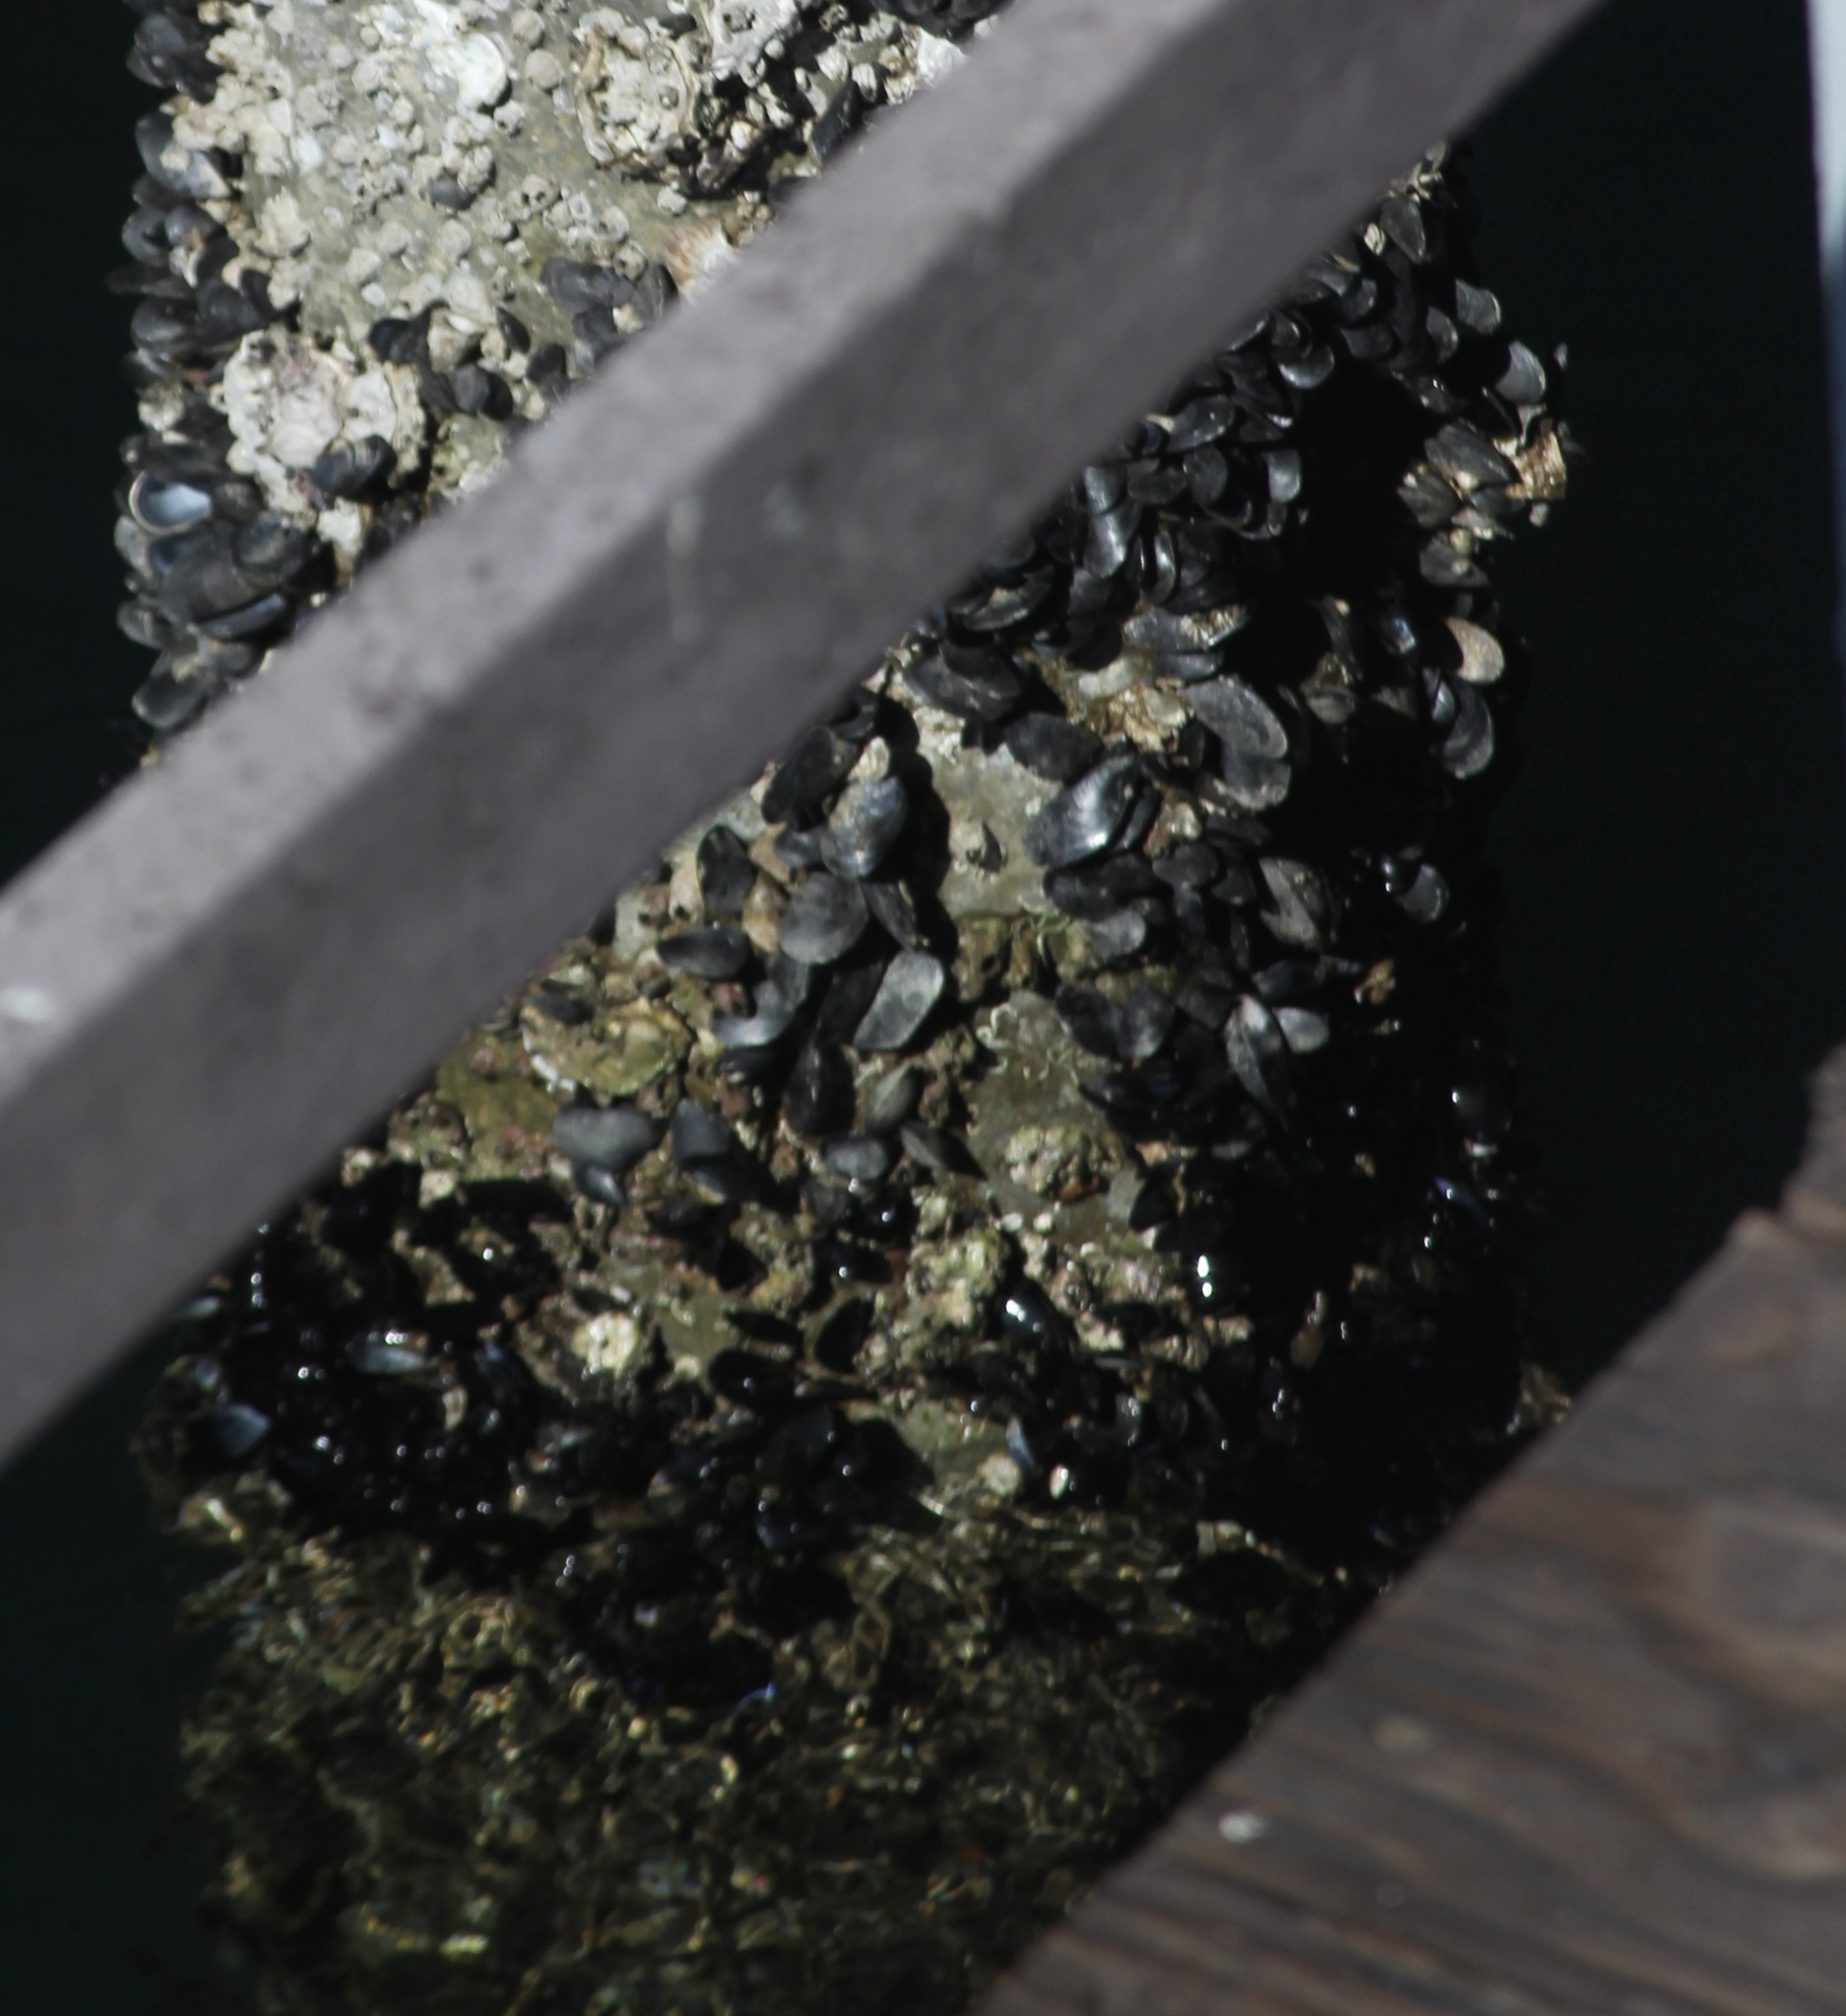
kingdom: Animalia
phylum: Mollusca
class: Bivalvia
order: Mytilida
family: Mytilidae
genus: Mytilus
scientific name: Mytilus galloprovincialis
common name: Mediterranean mussel
